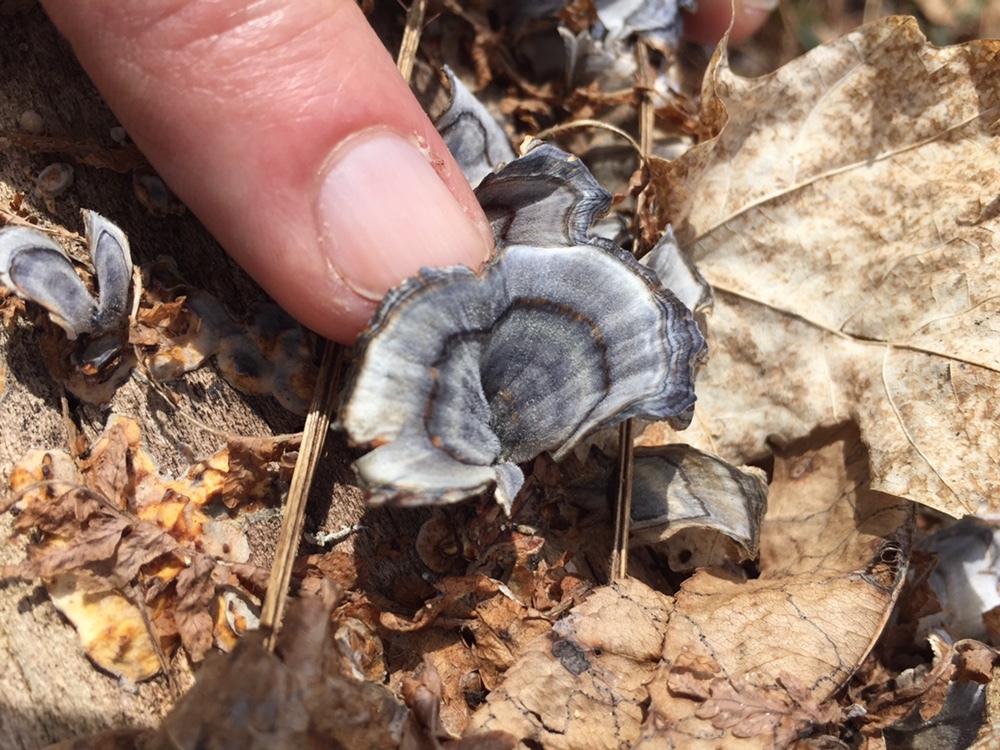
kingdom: Fungi
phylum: Basidiomycota
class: Agaricomycetes
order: Polyporales
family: Polyporaceae
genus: Trametes
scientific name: Trametes versicolor
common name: Turkeytail
